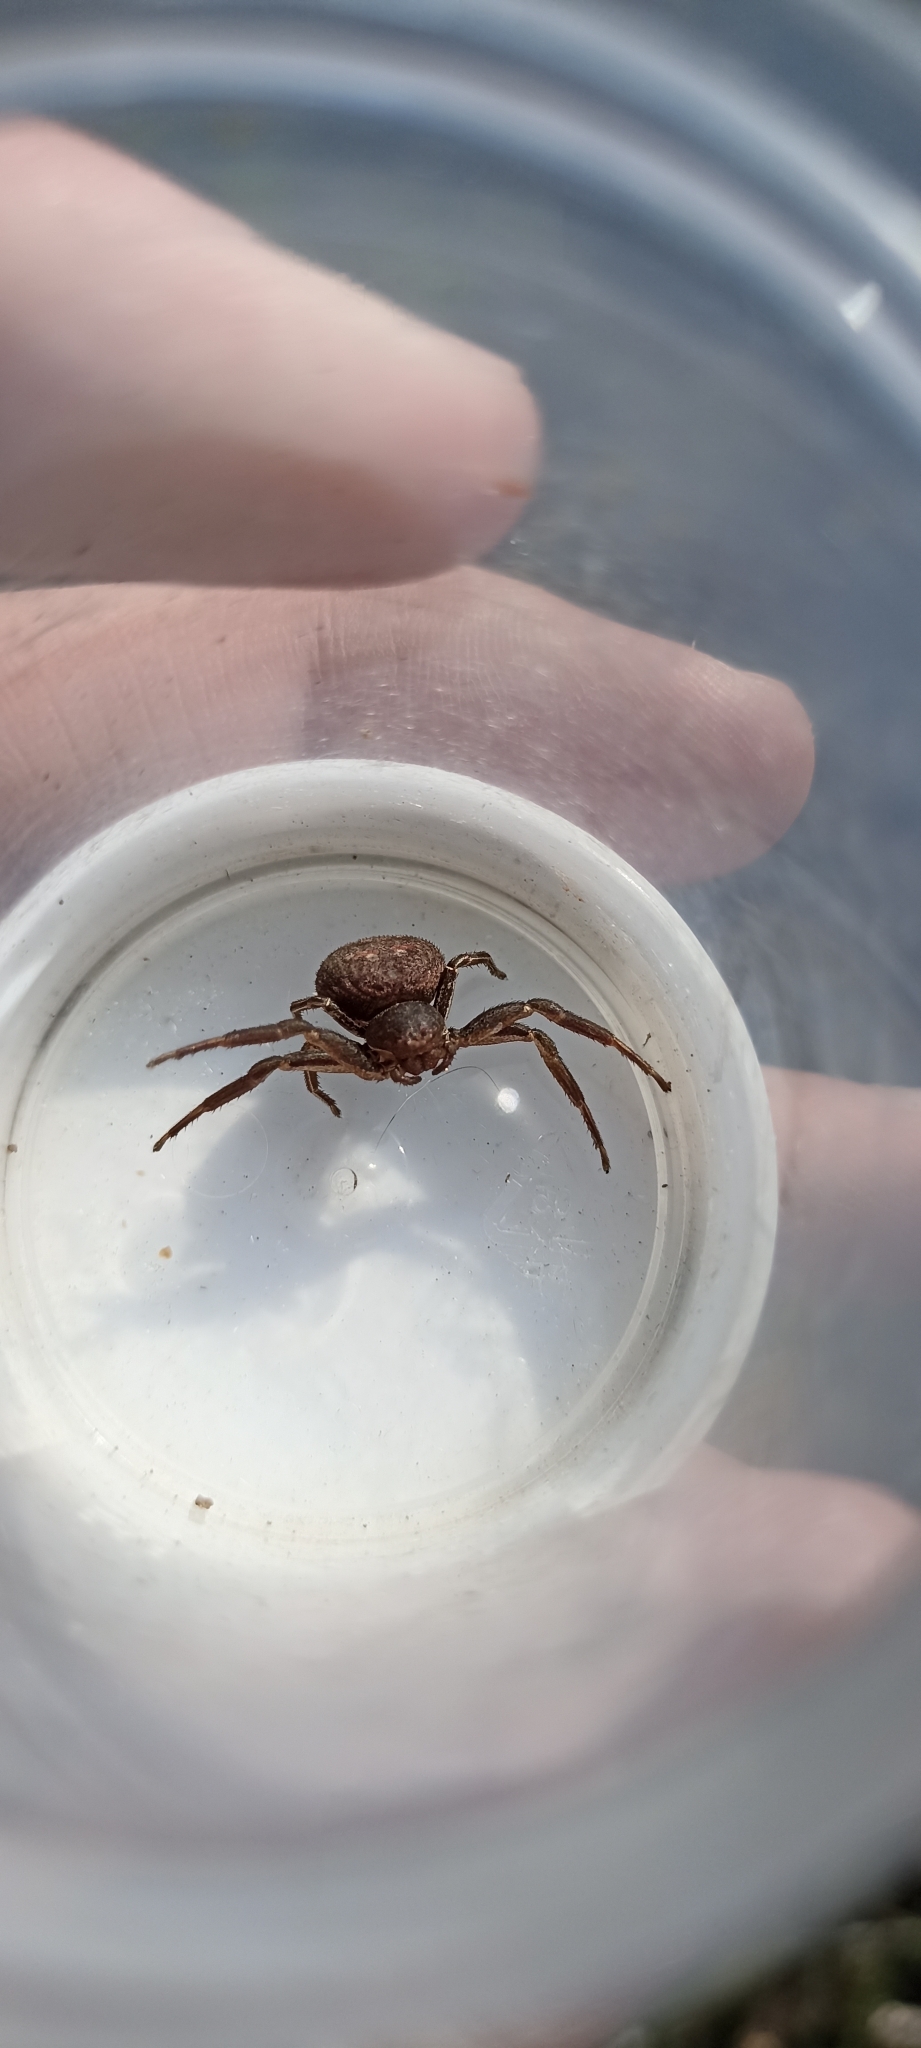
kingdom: Animalia
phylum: Arthropoda
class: Arachnida
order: Araneae
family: Thomisidae
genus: Bassaniodes
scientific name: Bassaniodes bufo
